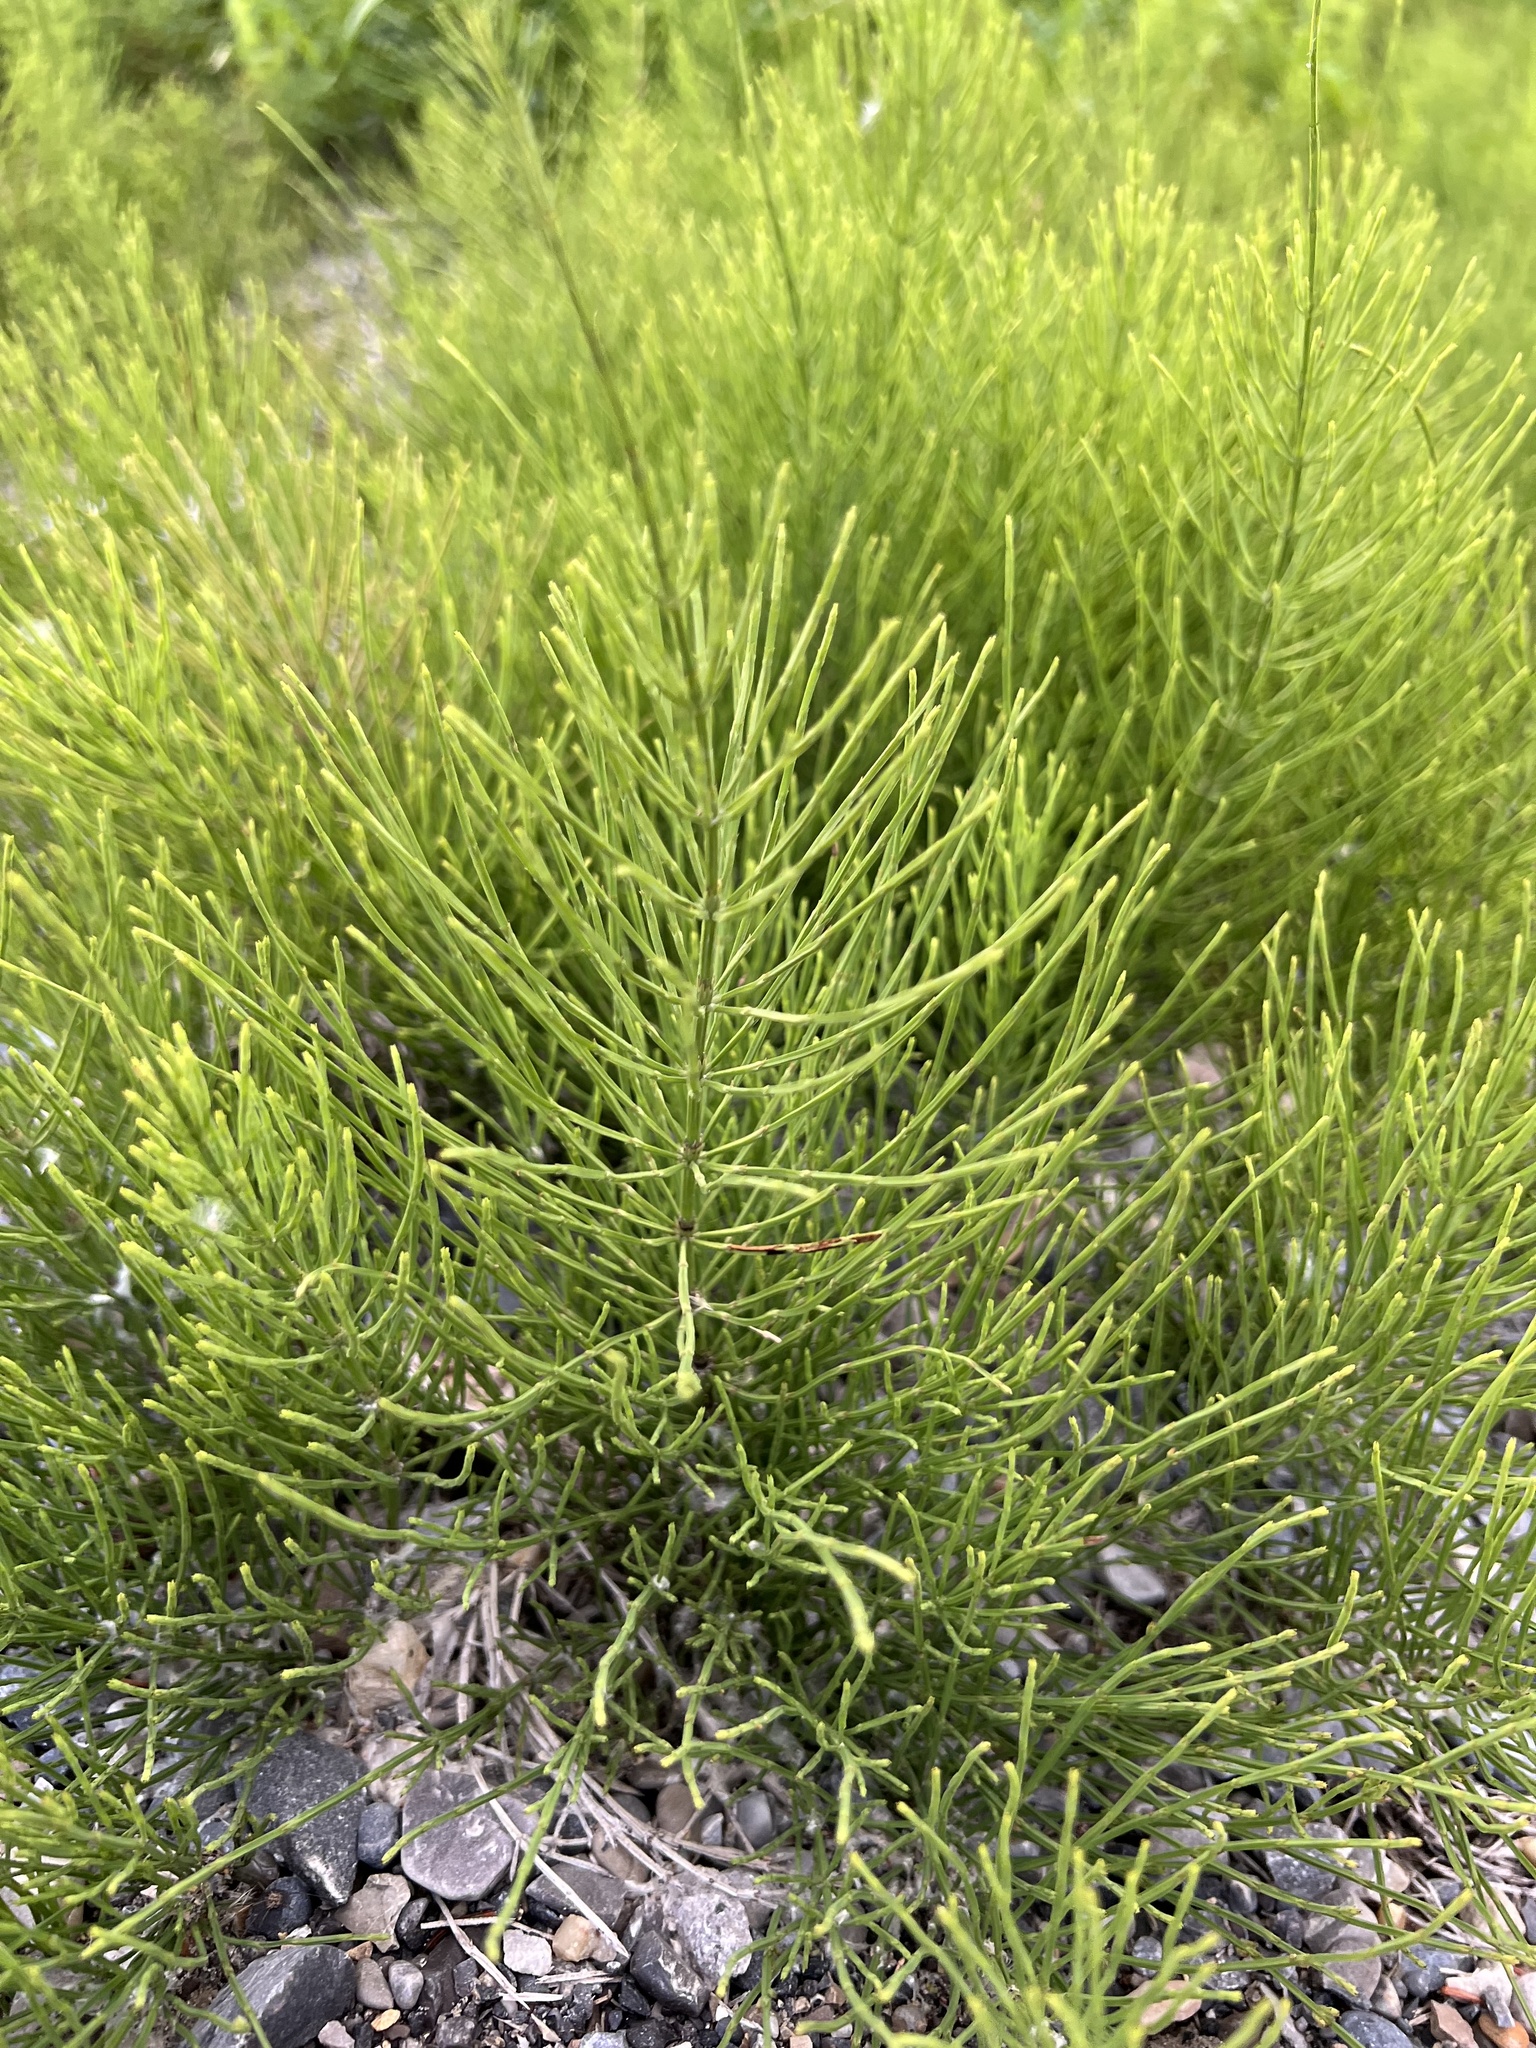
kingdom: Plantae
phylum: Tracheophyta
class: Polypodiopsida
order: Equisetales
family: Equisetaceae
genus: Equisetum
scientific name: Equisetum arvense
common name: Field horsetail
